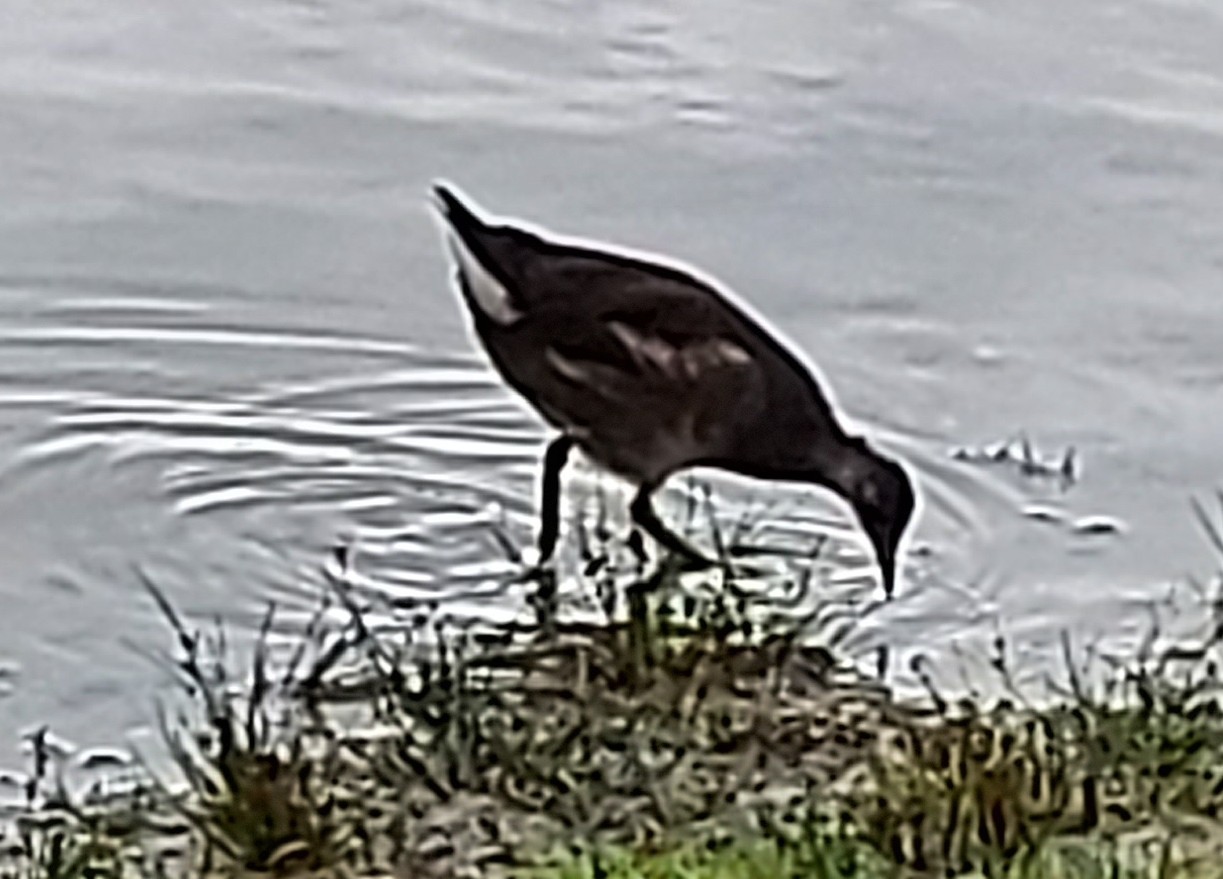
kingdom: Animalia
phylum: Chordata
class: Aves
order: Gruiformes
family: Rallidae
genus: Gallinula
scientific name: Gallinula chloropus
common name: Common moorhen
